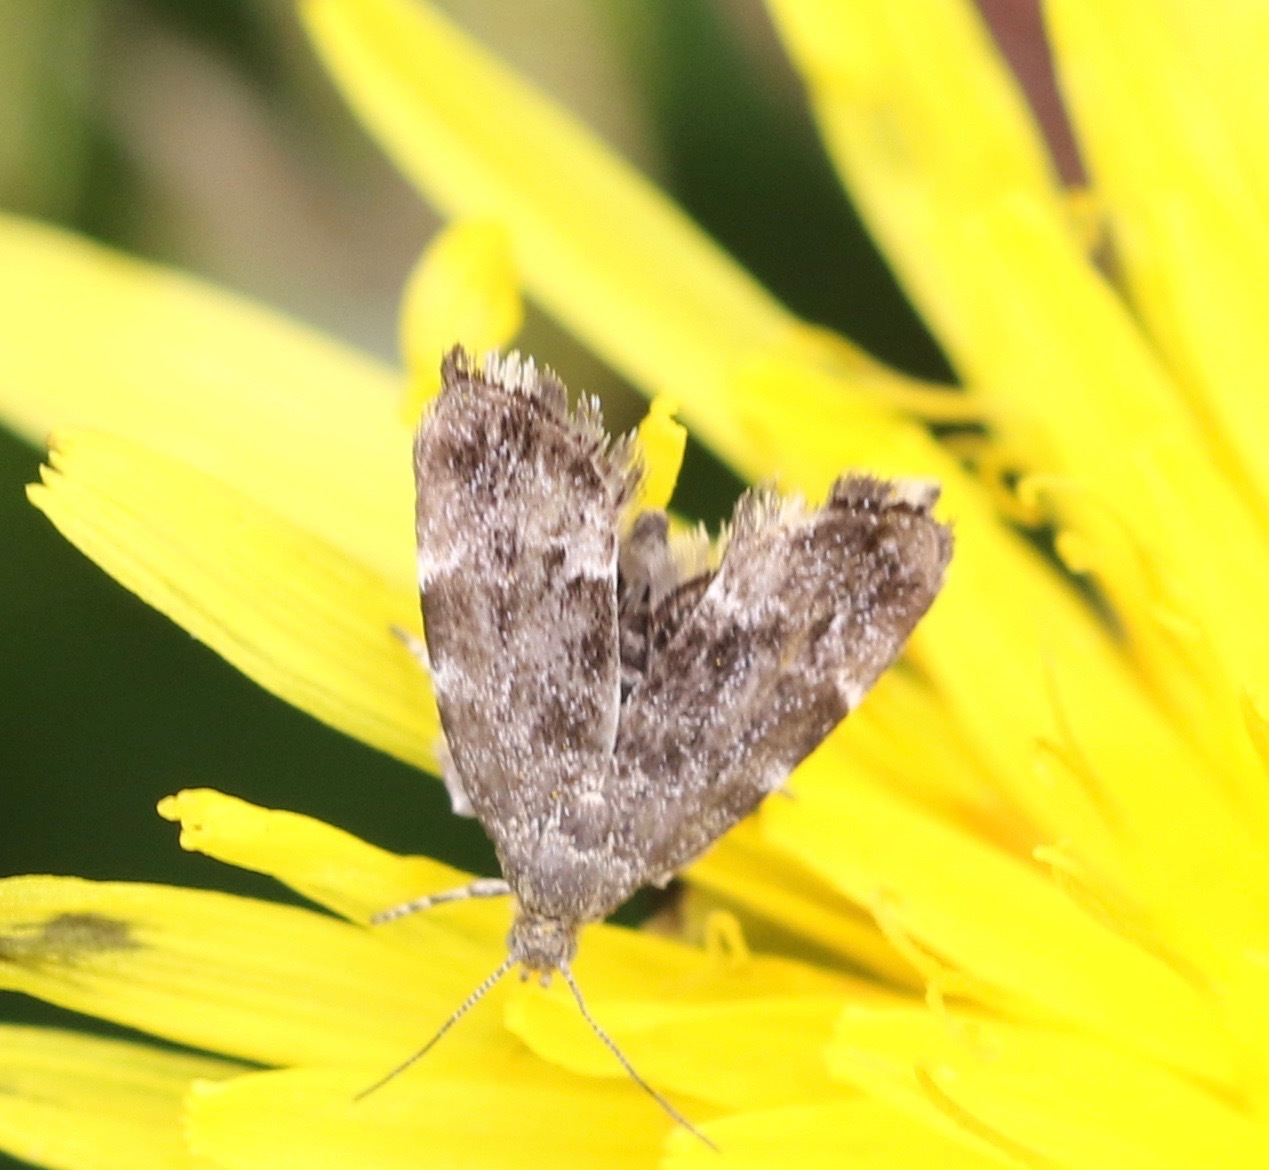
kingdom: Animalia
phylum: Arthropoda
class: Insecta
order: Lepidoptera
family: Choreutidae
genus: Anthophila
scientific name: Anthophila fabriciana
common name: Nettle-tap
